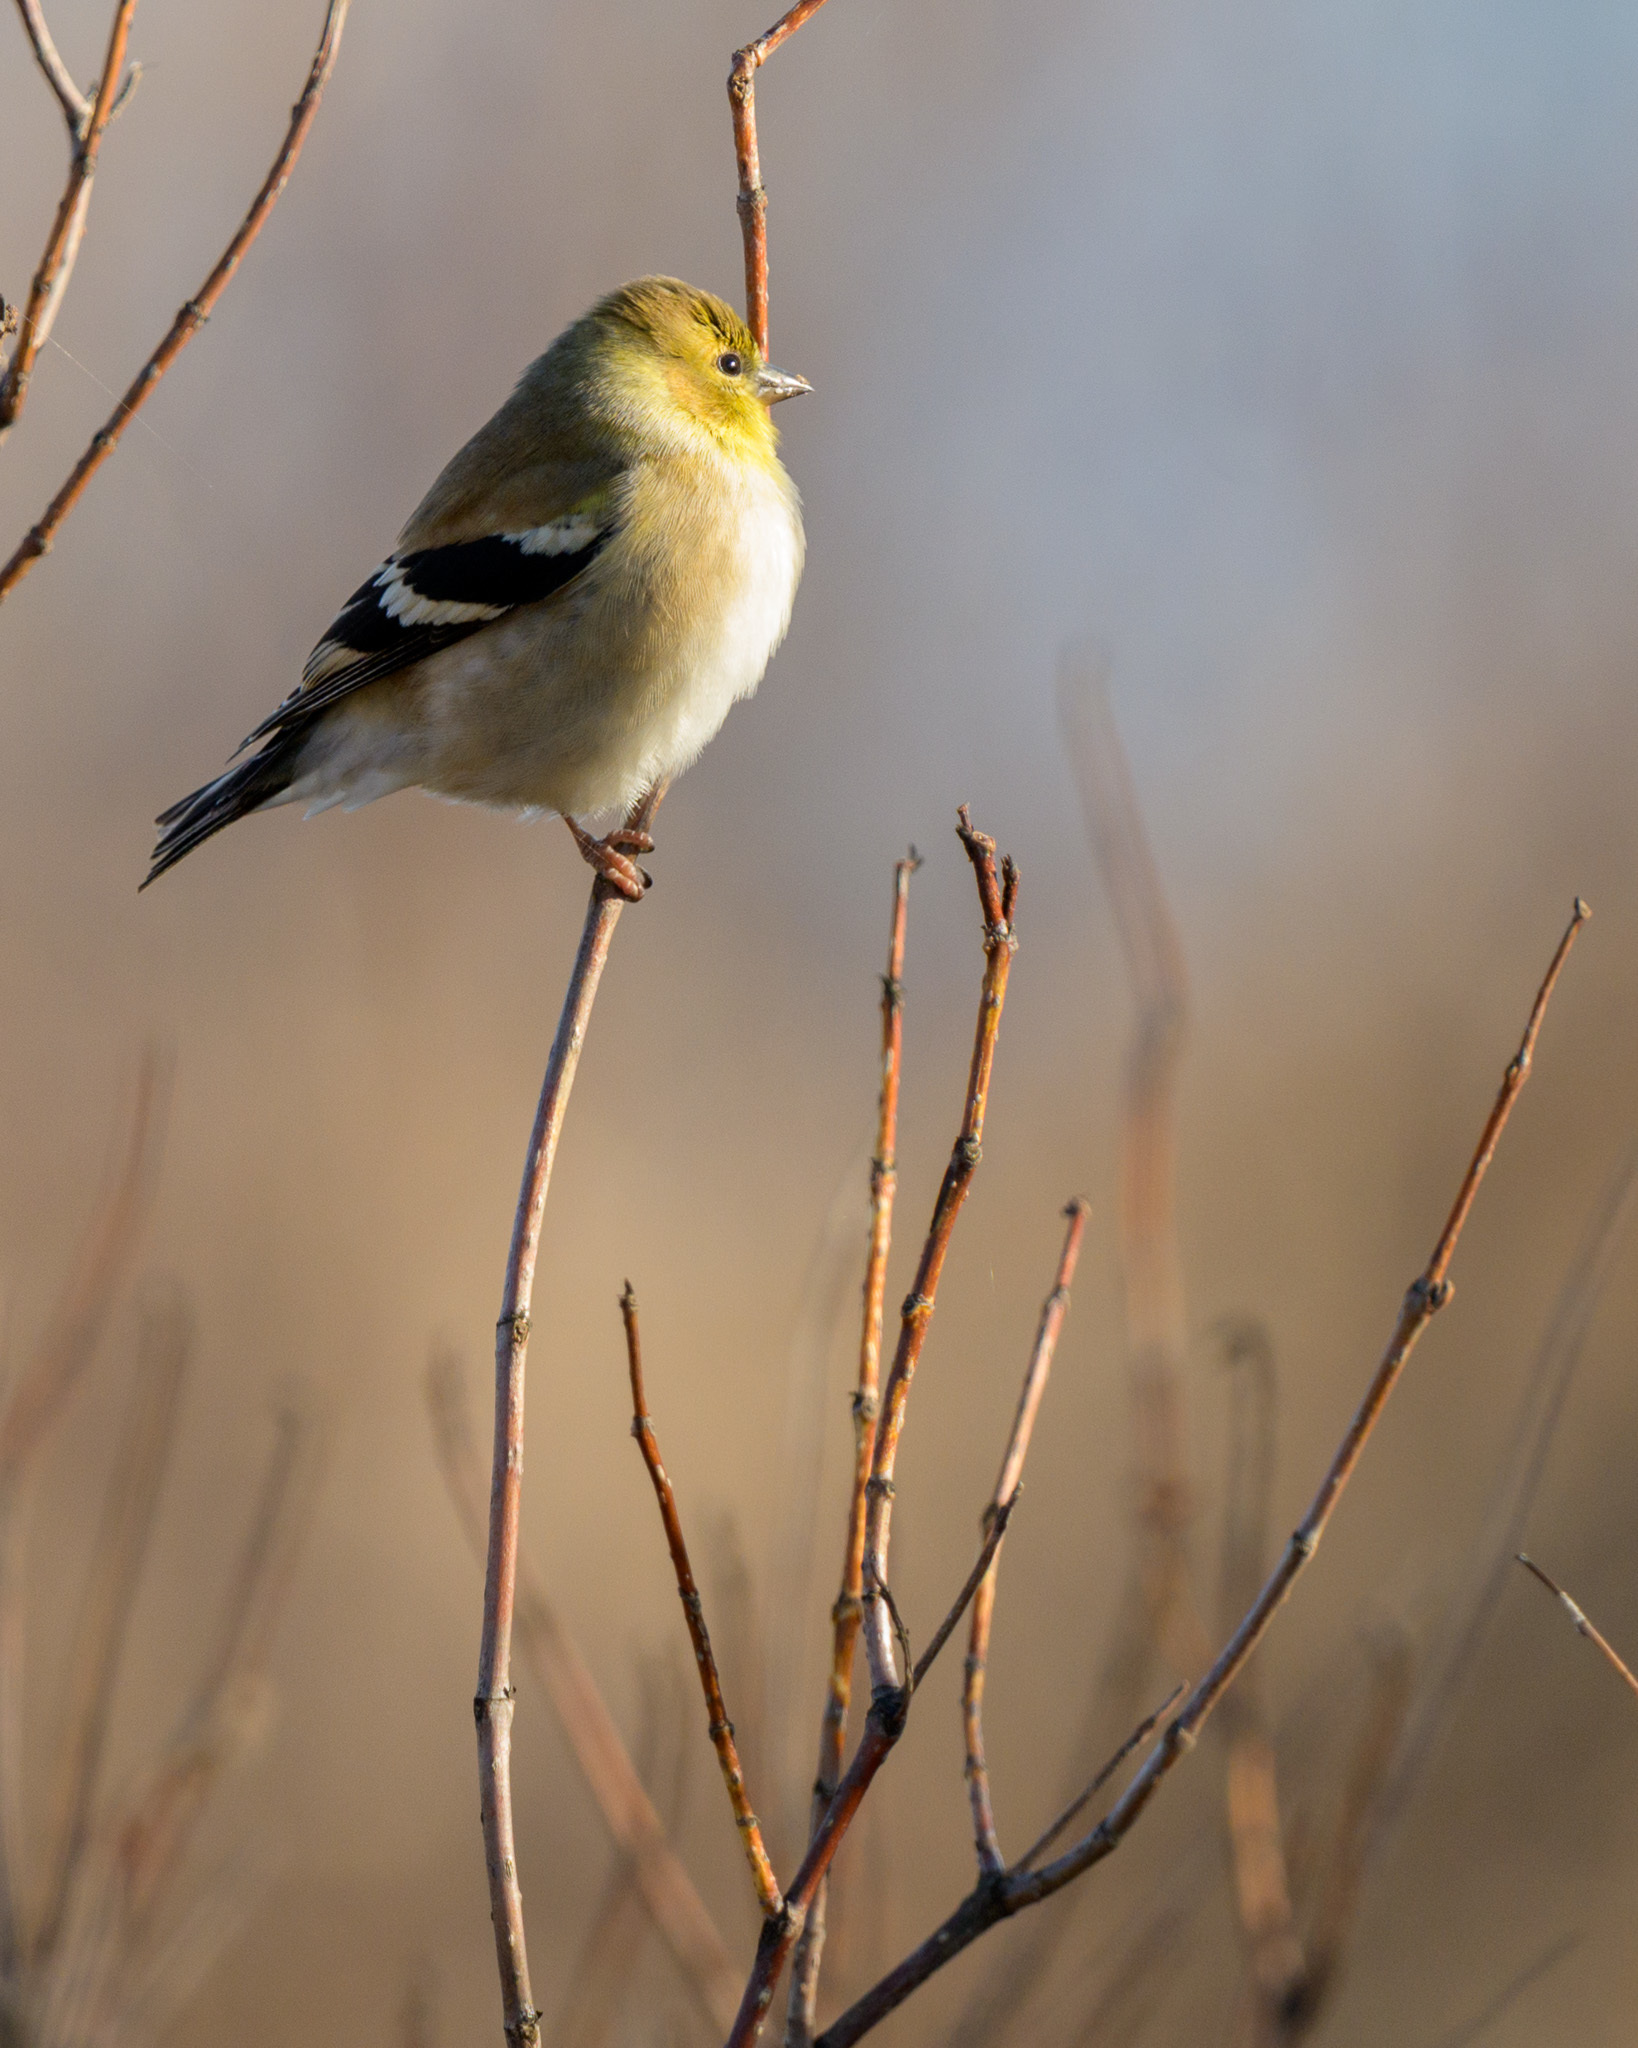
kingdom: Animalia
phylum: Chordata
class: Aves
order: Passeriformes
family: Fringillidae
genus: Spinus
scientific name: Spinus tristis
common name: American goldfinch
